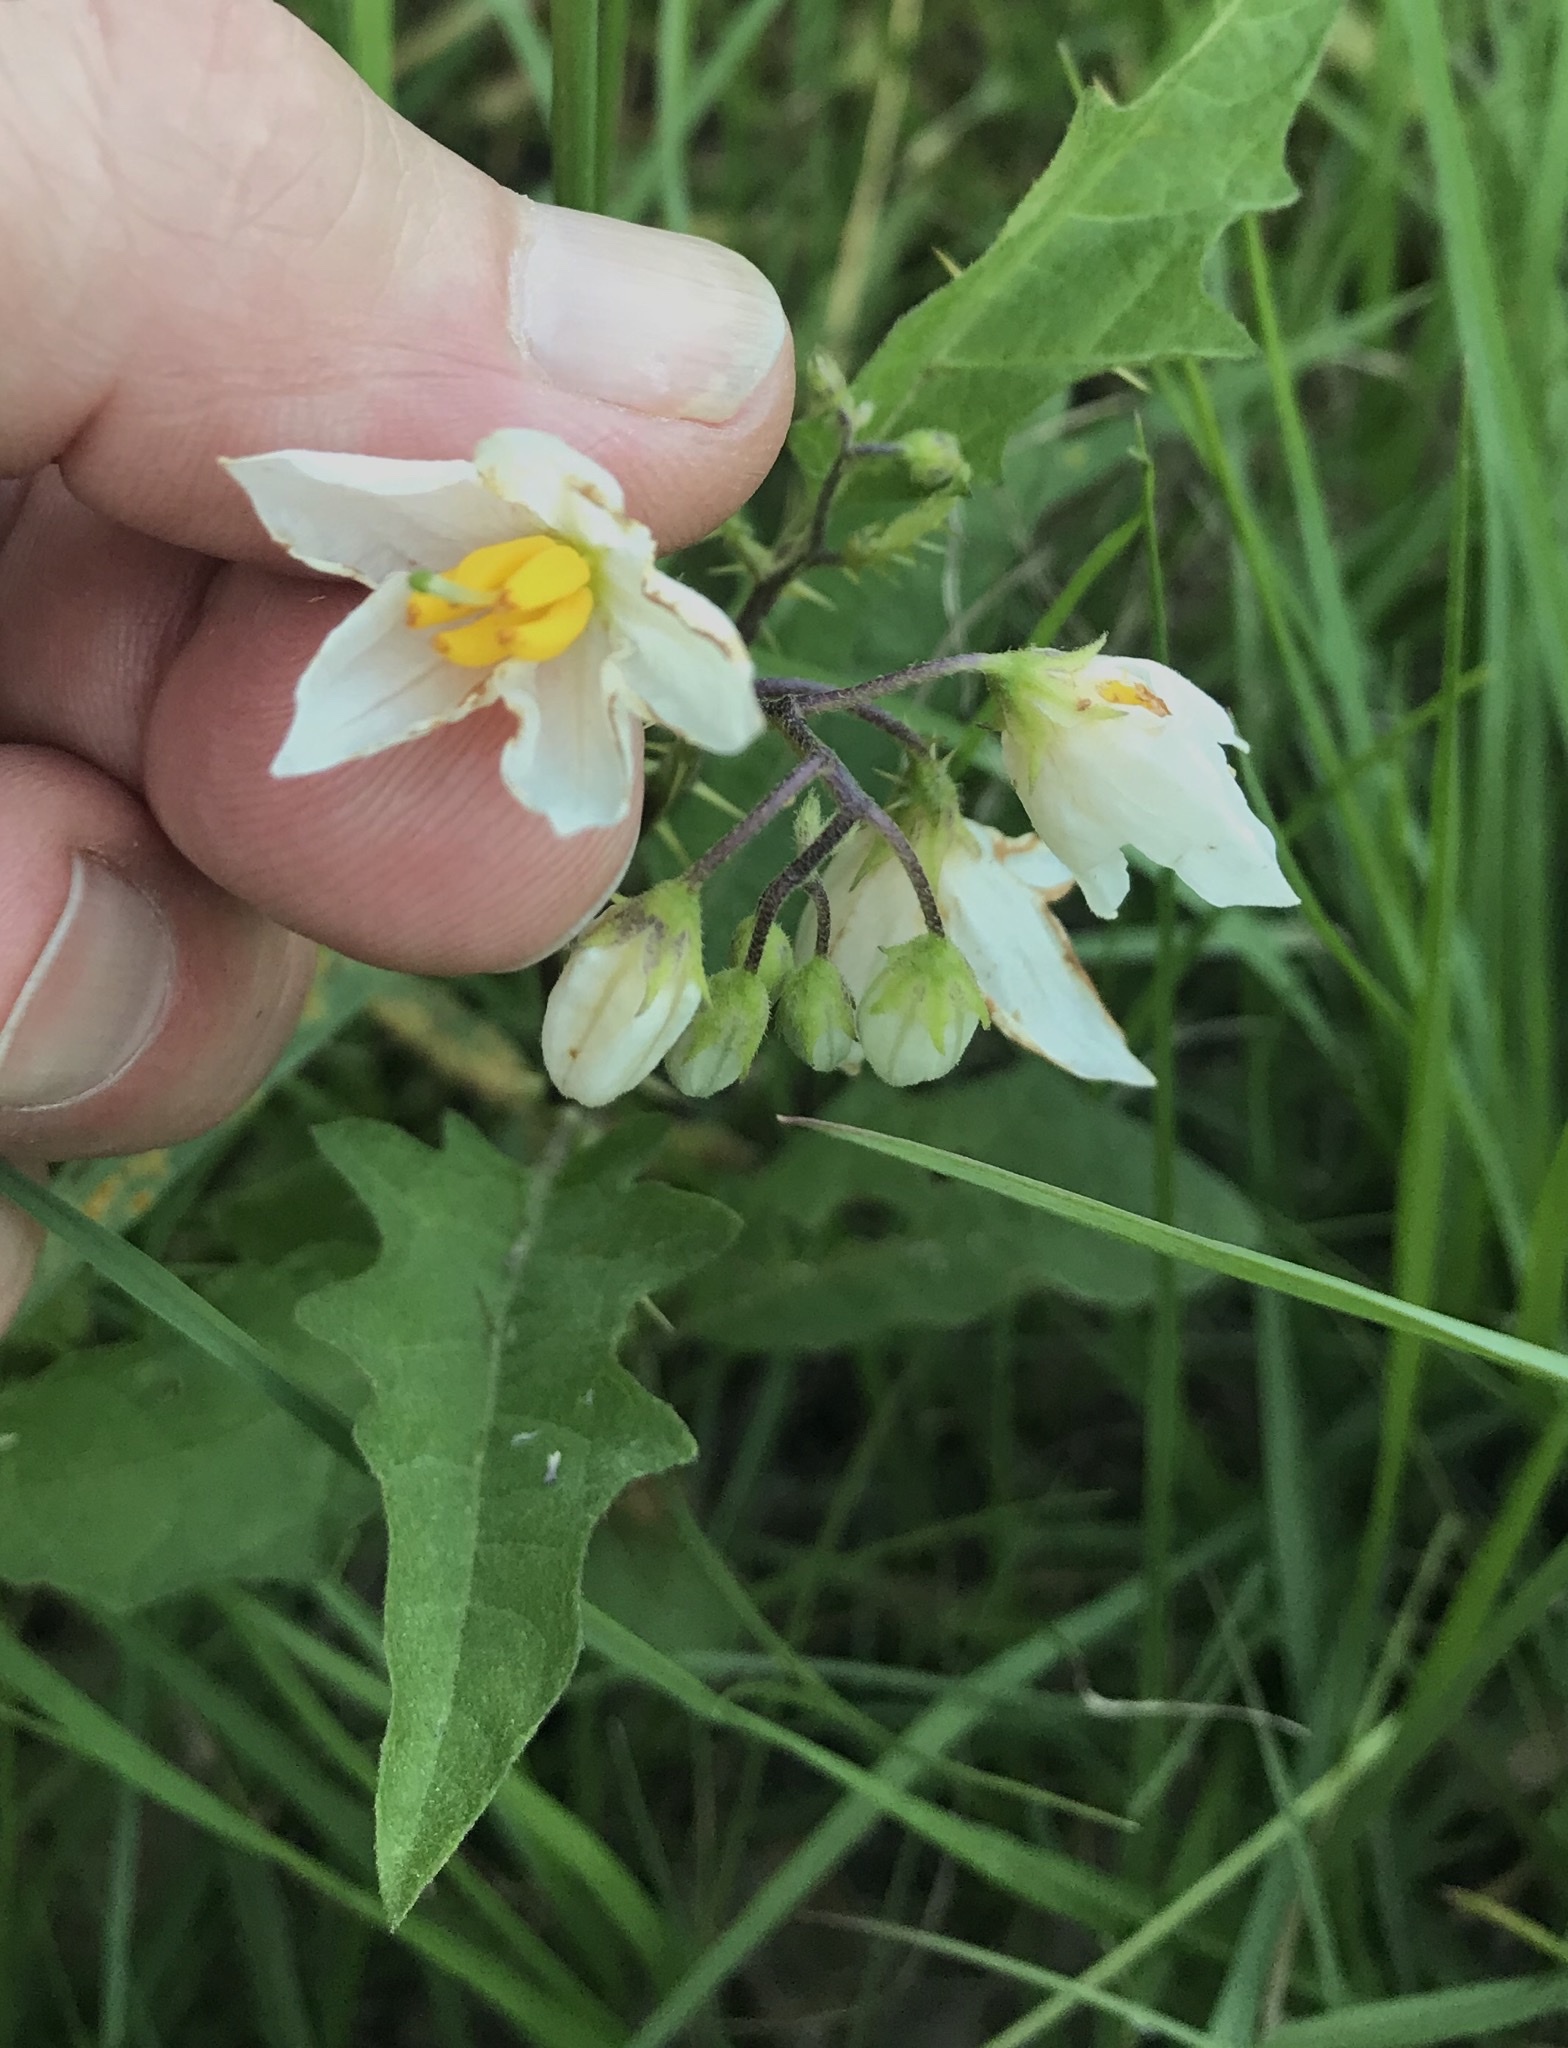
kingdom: Plantae
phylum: Tracheophyta
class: Magnoliopsida
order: Solanales
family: Solanaceae
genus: Solanum
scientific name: Solanum carolinense
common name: Horse-nettle
